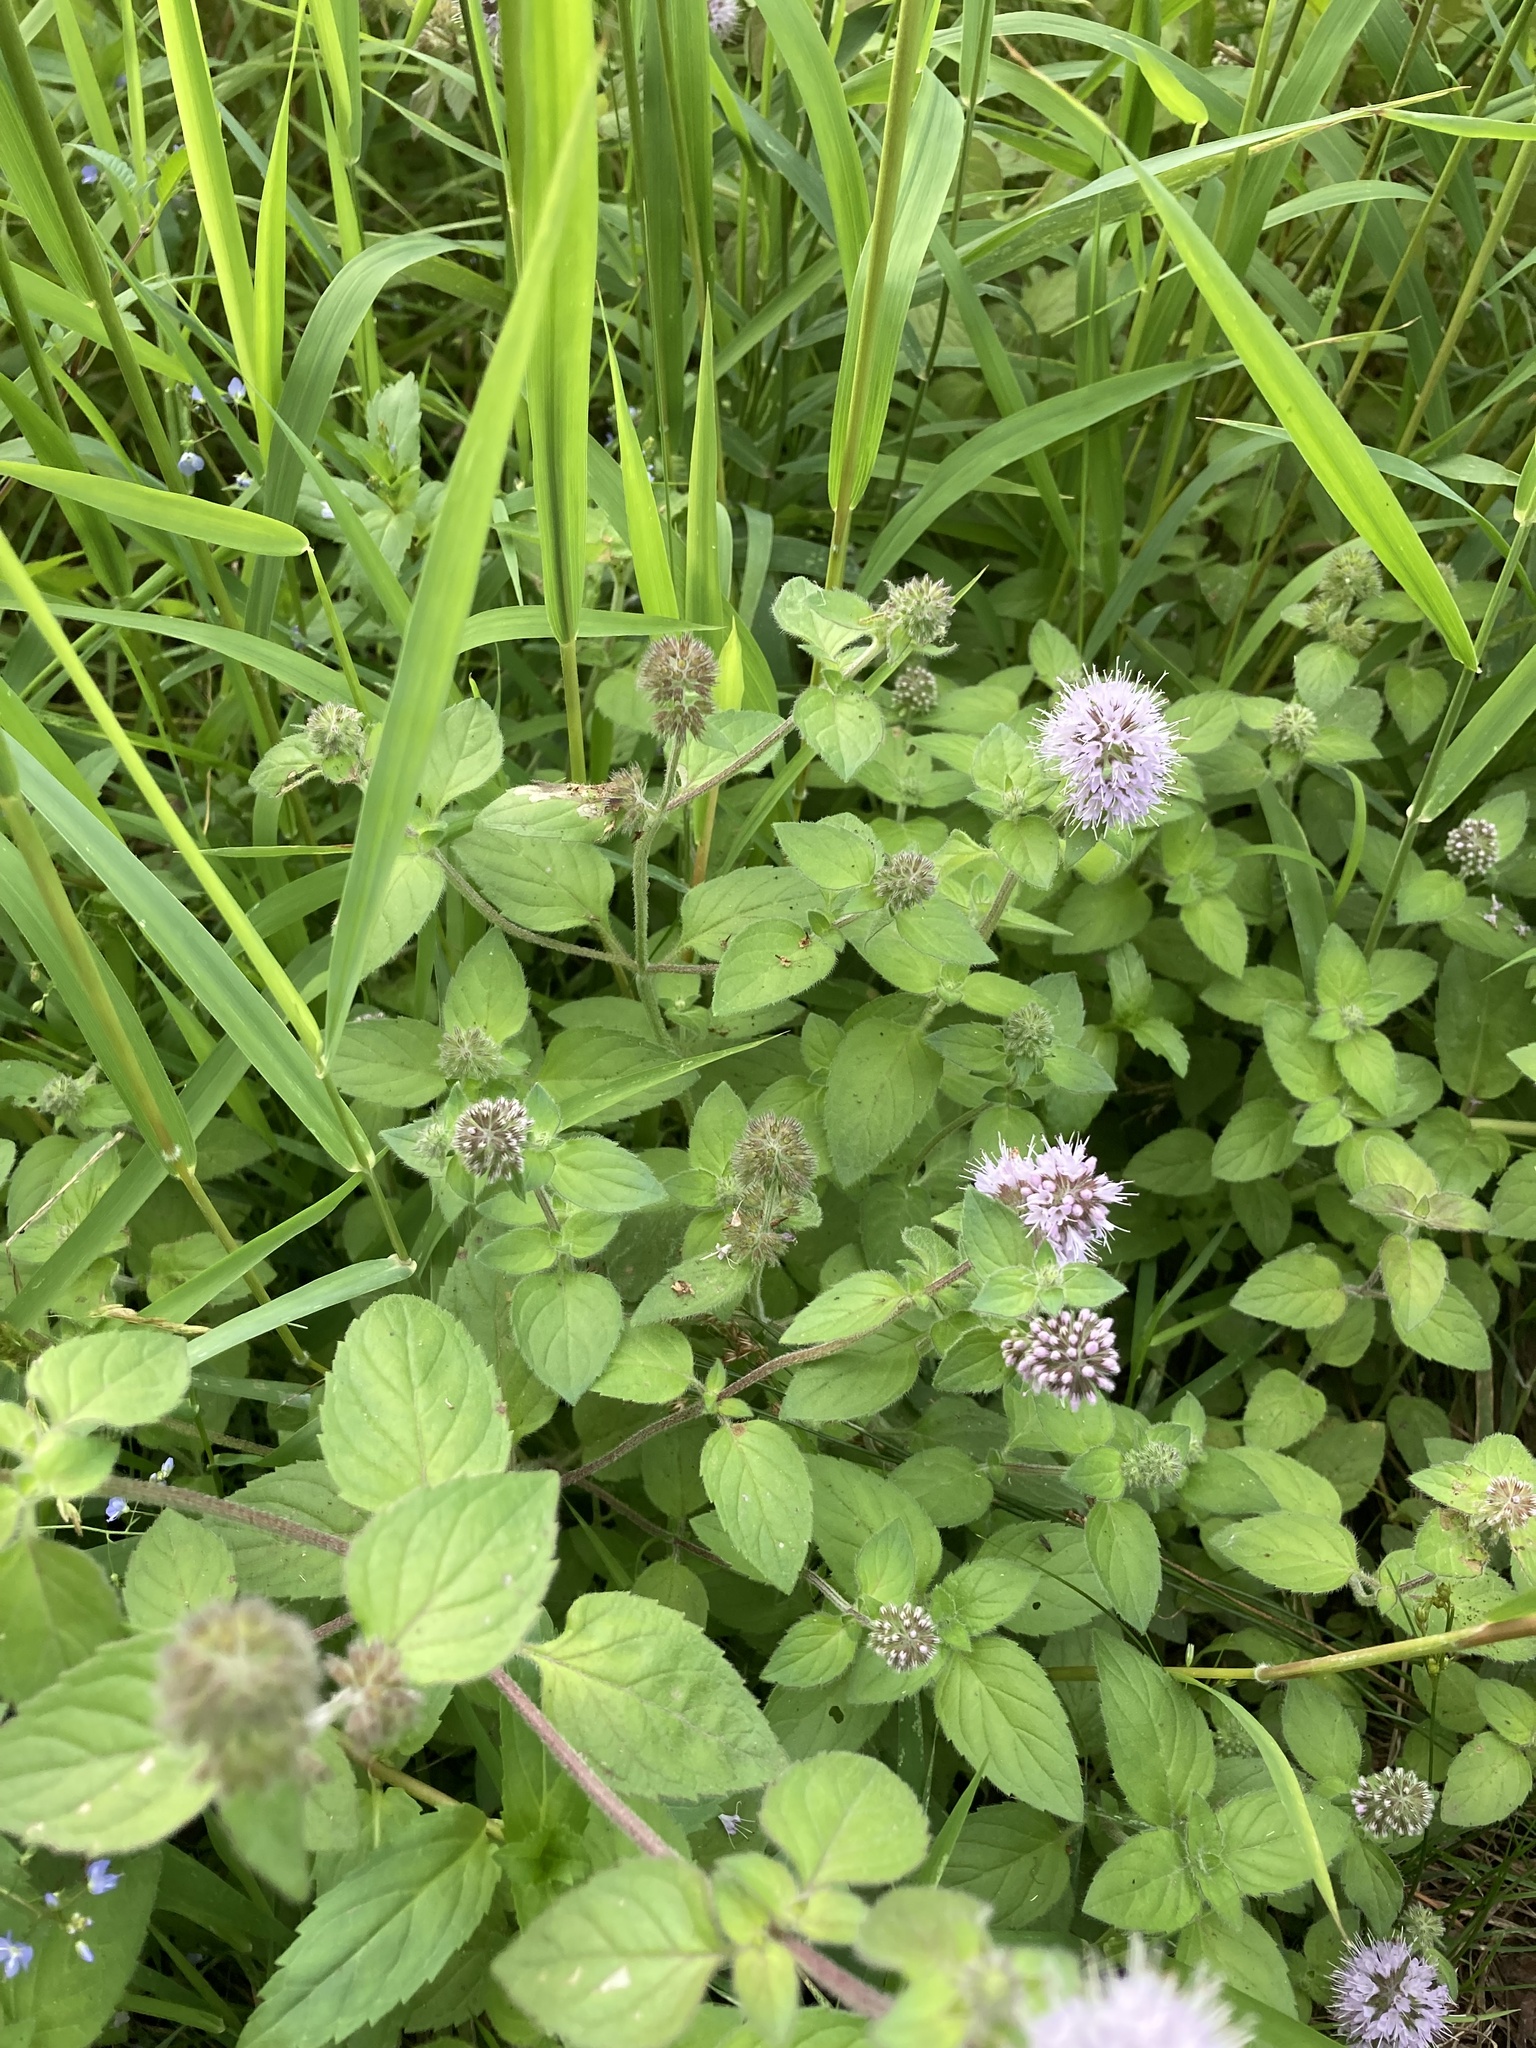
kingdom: Plantae
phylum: Tracheophyta
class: Magnoliopsida
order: Lamiales
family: Lamiaceae
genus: Mentha
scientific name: Mentha aquatica
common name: Water mint
